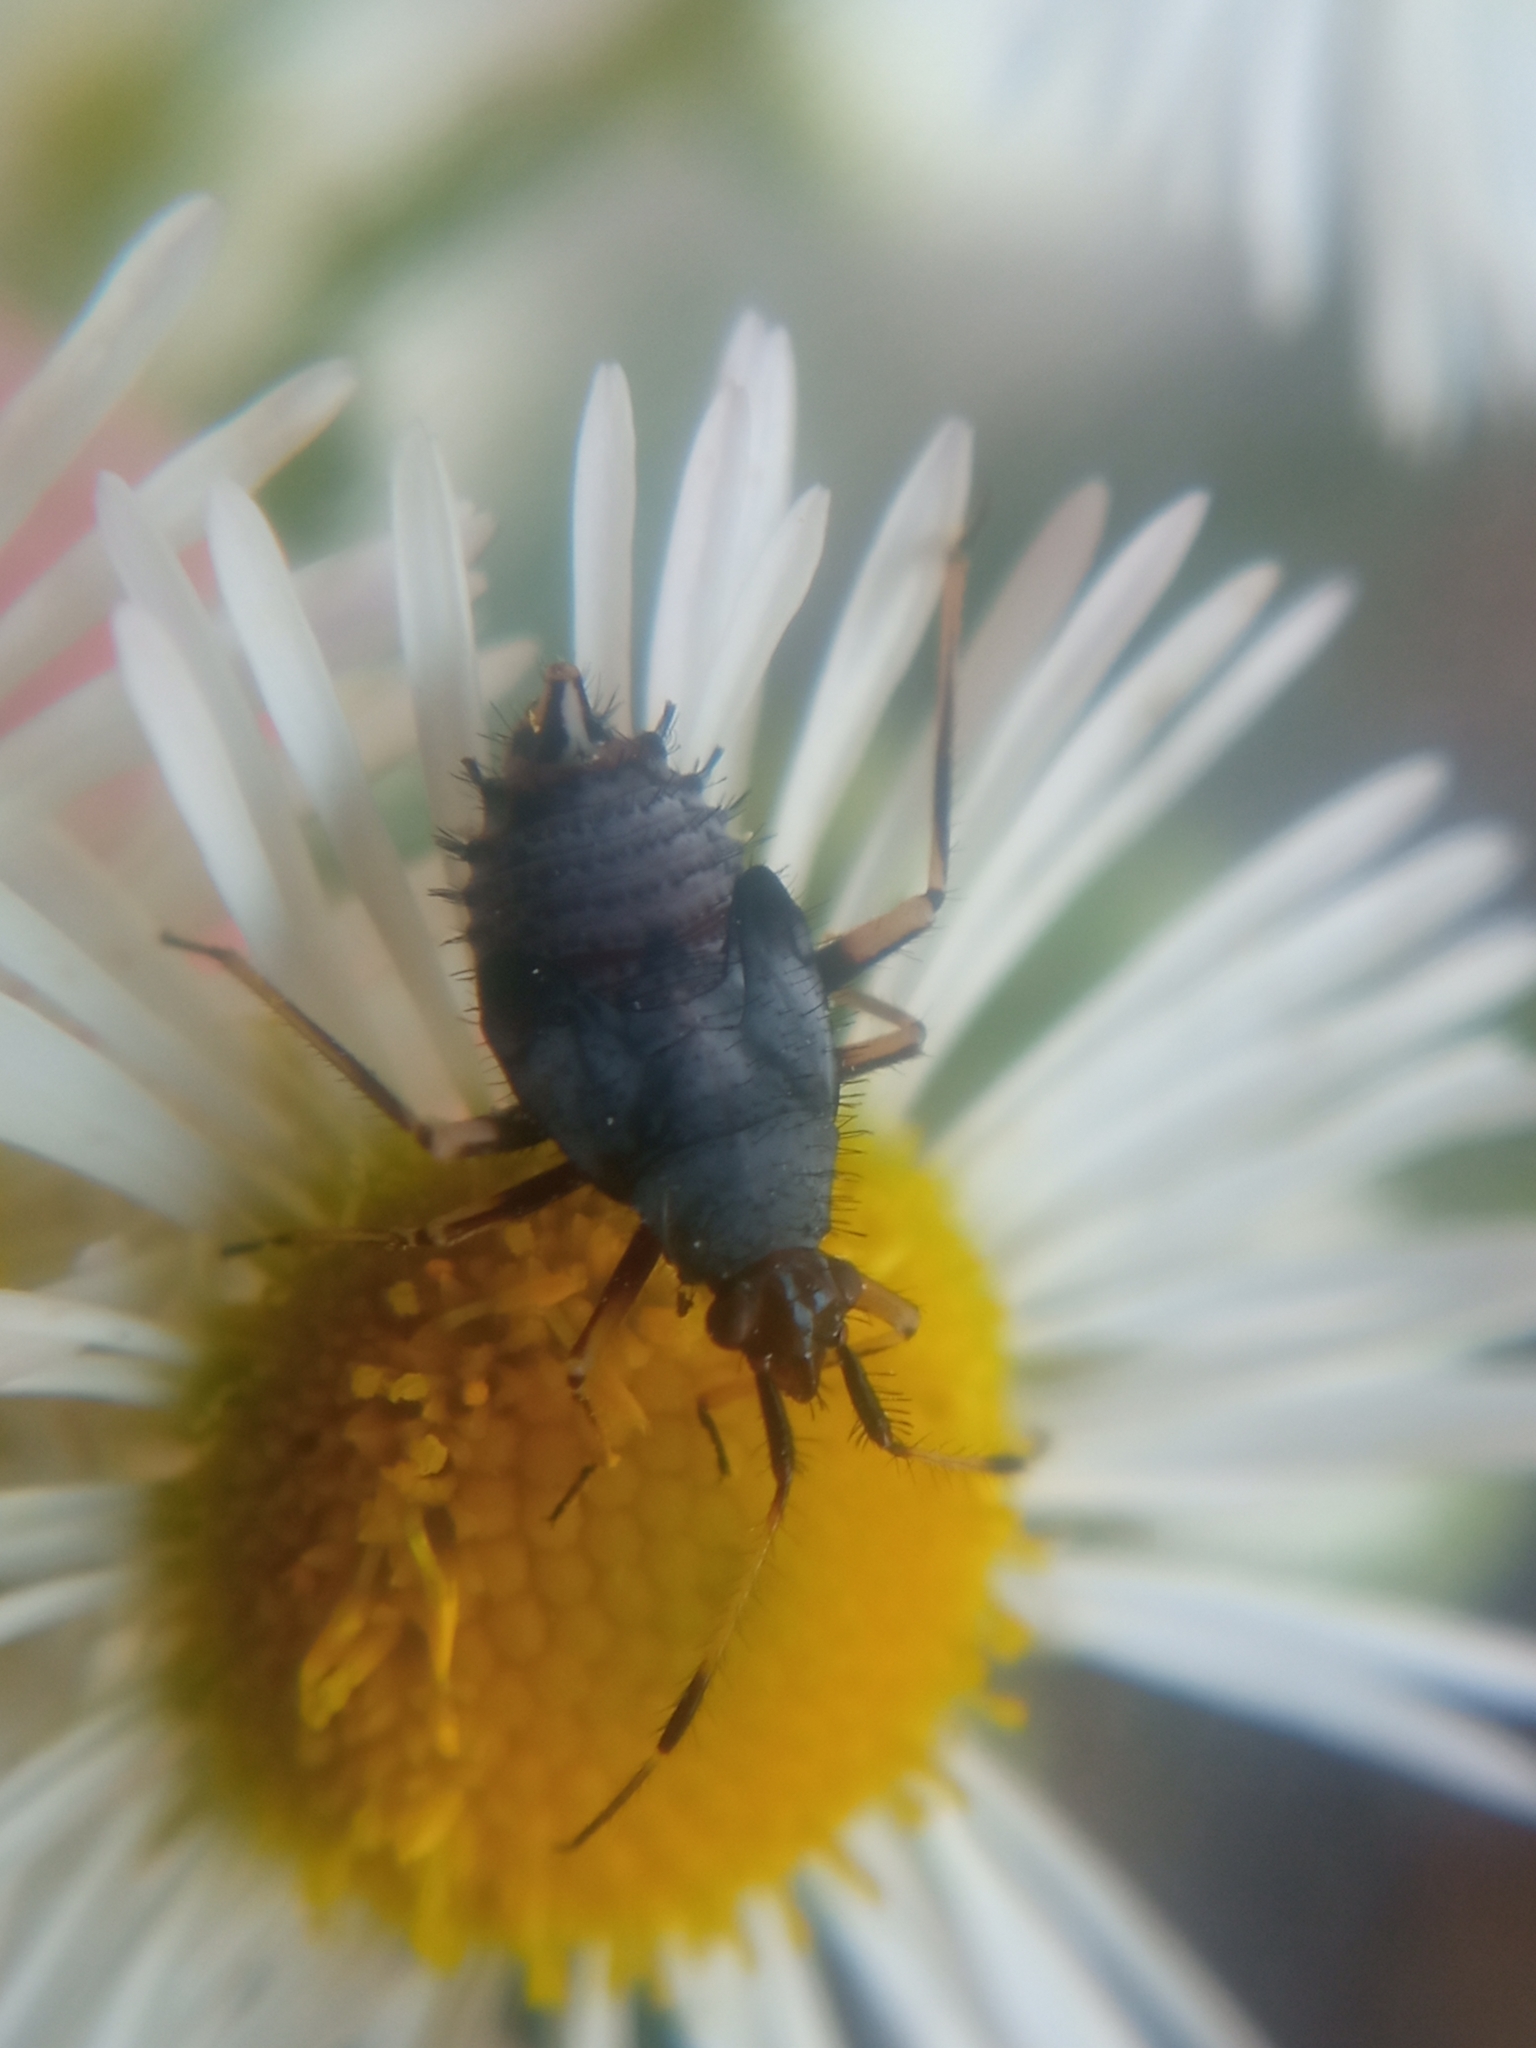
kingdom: Animalia
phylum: Arthropoda
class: Insecta
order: Hemiptera
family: Miridae
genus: Deraeocoris
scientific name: Deraeocoris ruber
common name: Plant bug
